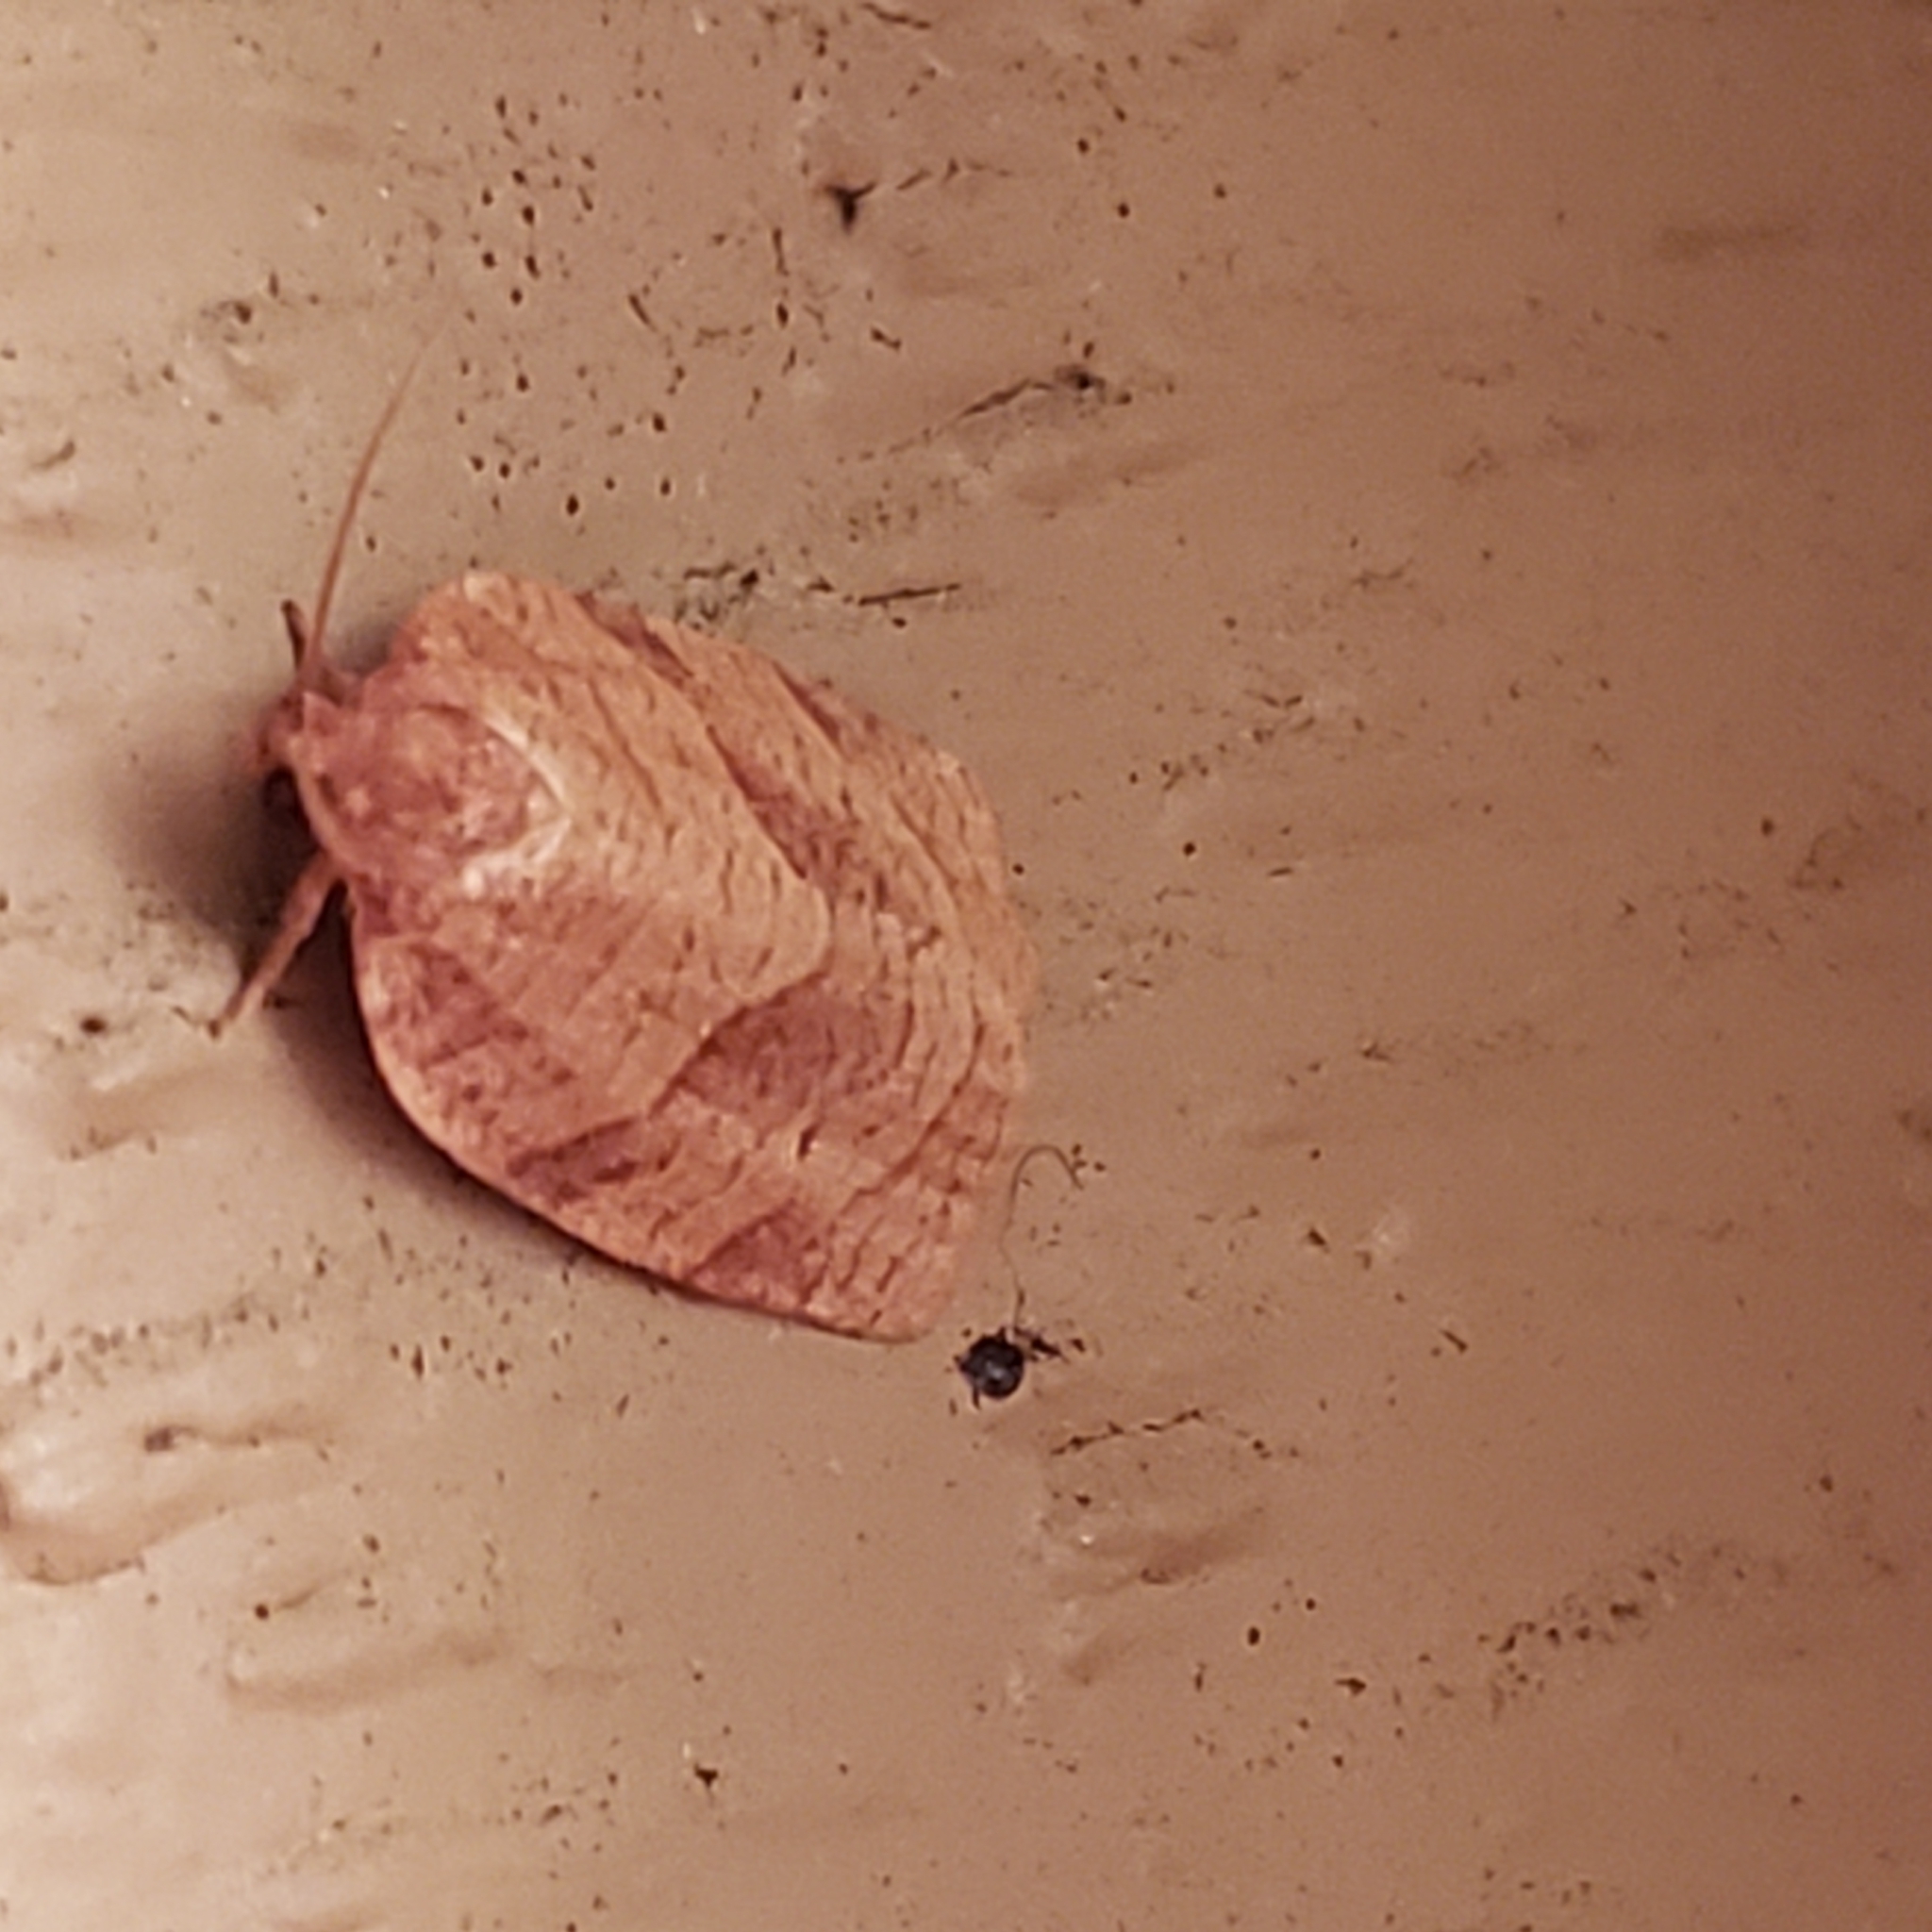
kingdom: Animalia
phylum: Arthropoda
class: Insecta
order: Lepidoptera
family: Tortricidae
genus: Choristoneura
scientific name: Choristoneura parallela
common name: Parallel-banded leafroller moth
